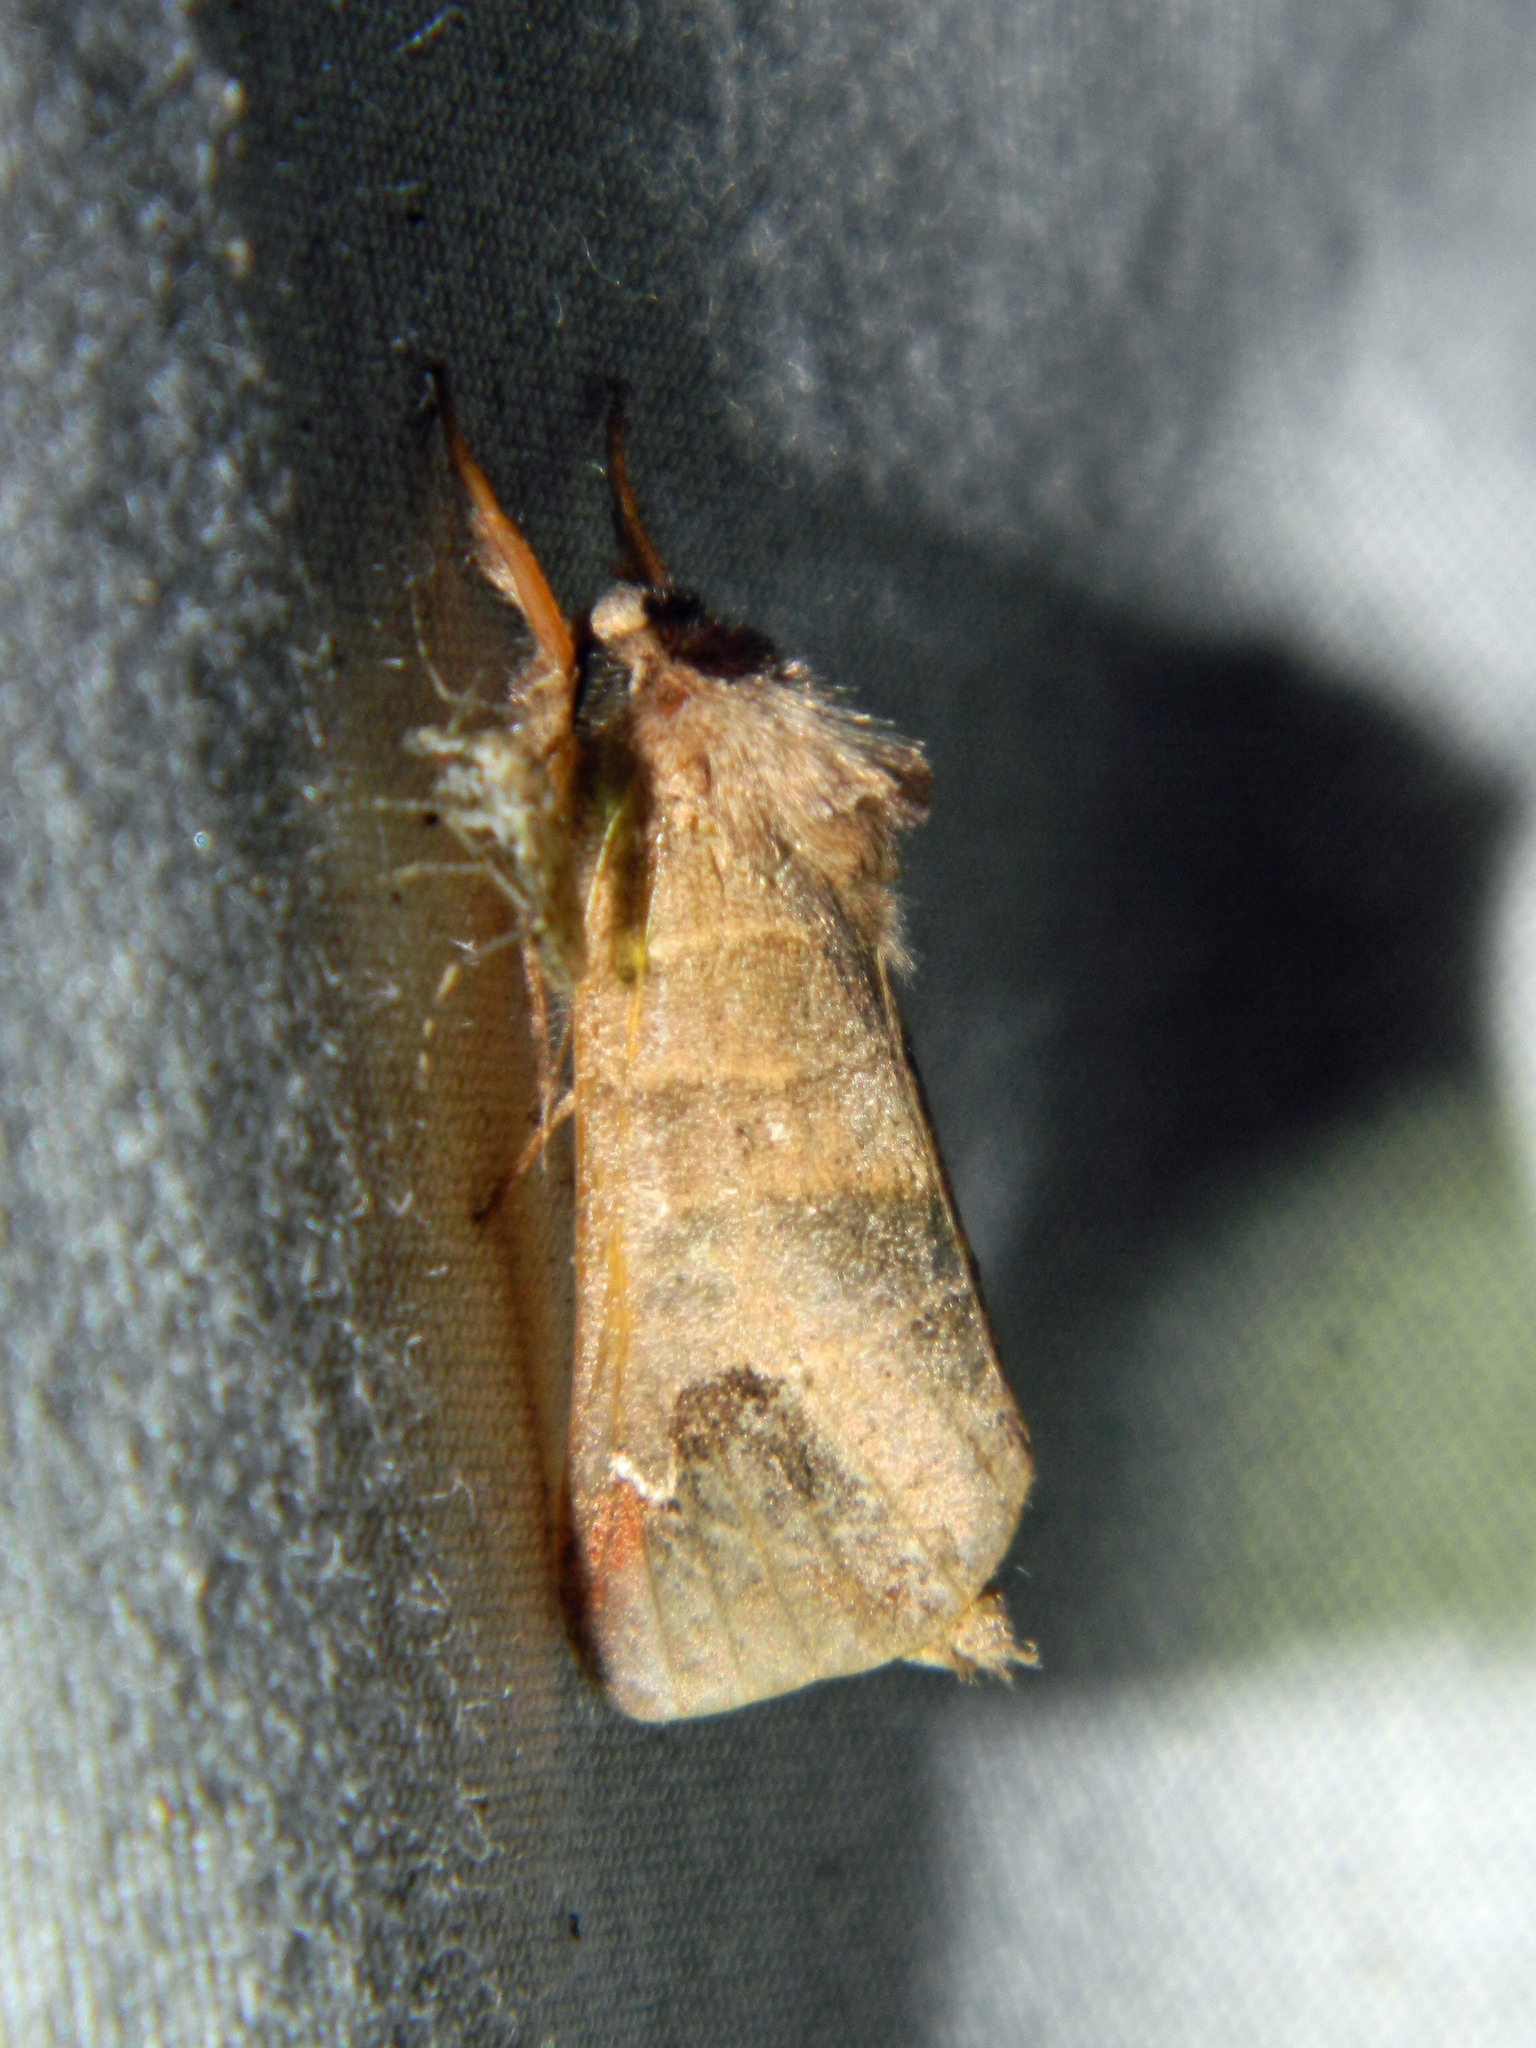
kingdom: Animalia
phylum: Arthropoda
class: Insecta
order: Lepidoptera
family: Notodontidae
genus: Clostera
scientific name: Clostera albosigma
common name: Sigmoid prominent
